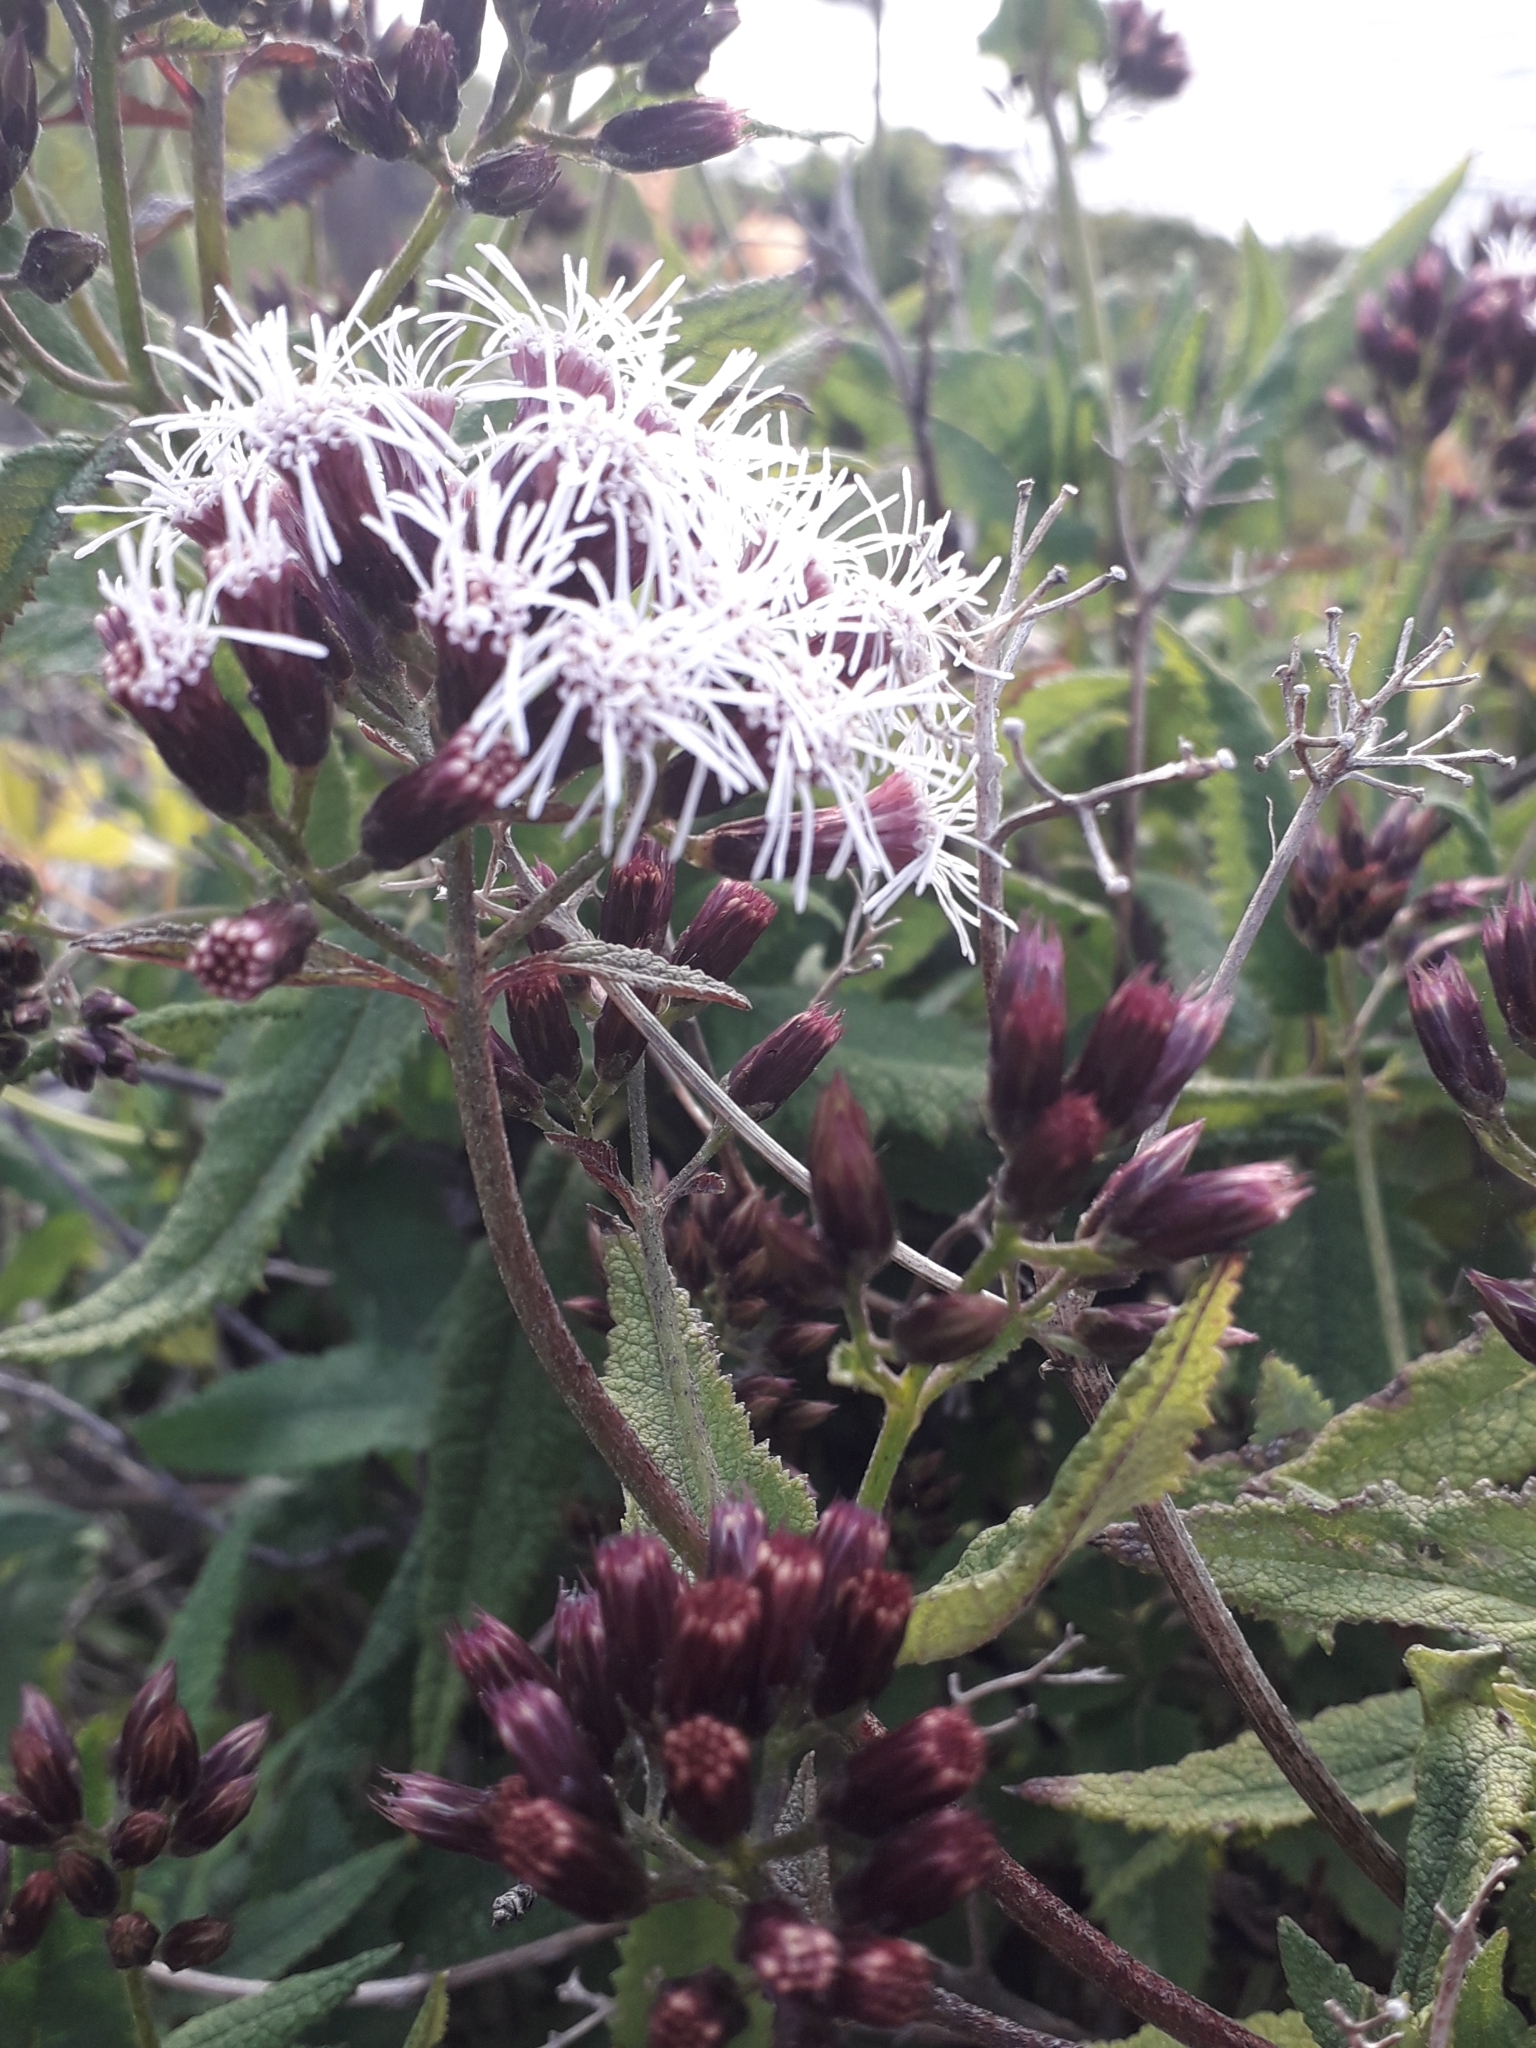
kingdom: Plantae
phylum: Tracheophyta
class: Magnoliopsida
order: Asterales
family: Asteraceae
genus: Aristeguietia
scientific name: Aristeguietia salvia
